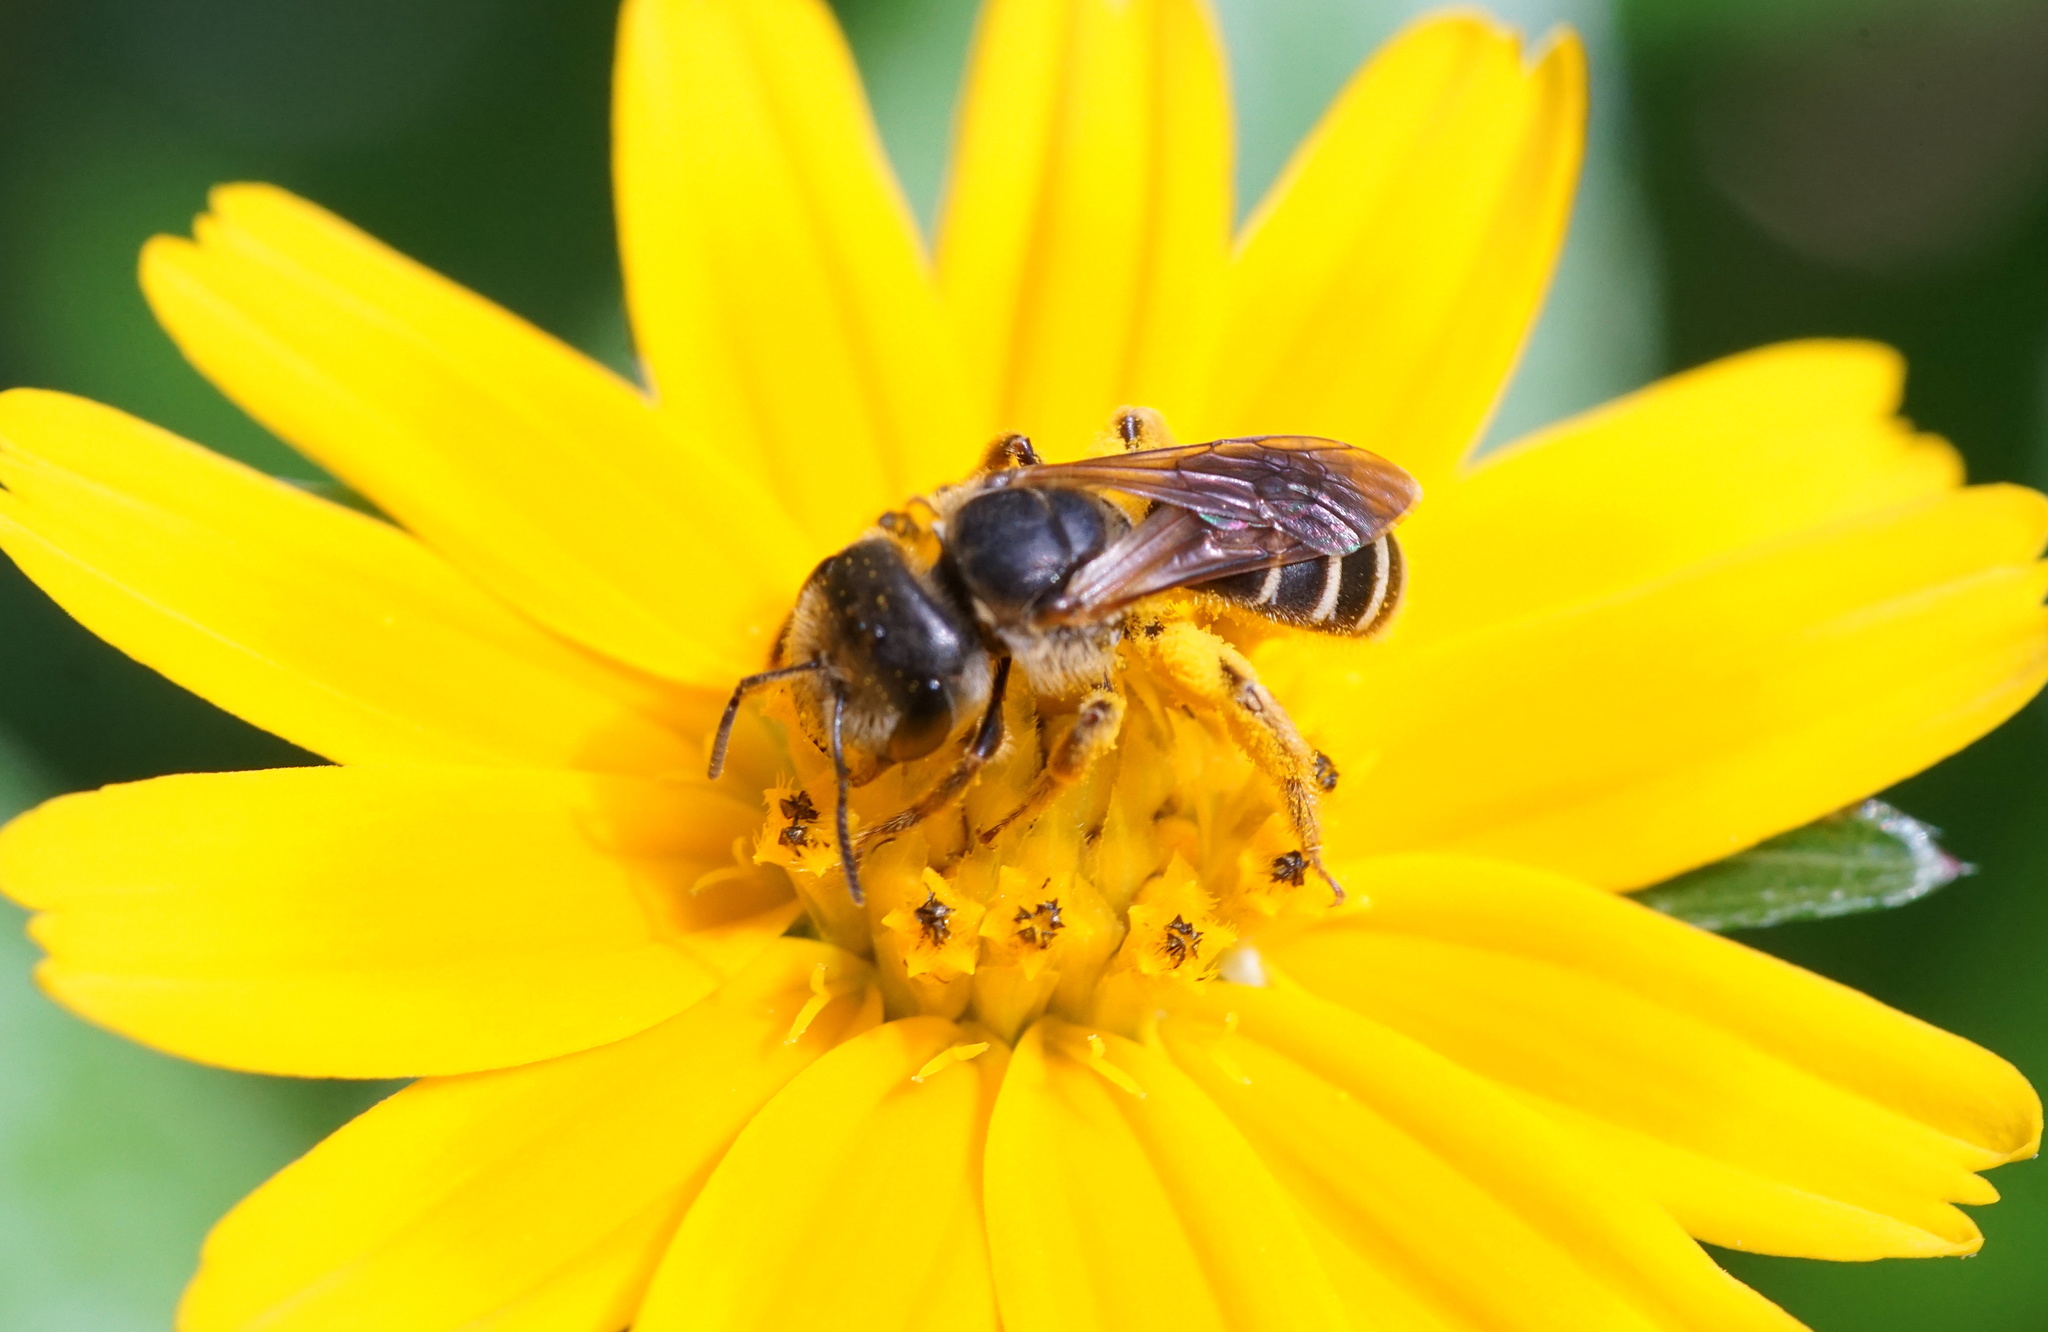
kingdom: Animalia
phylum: Arthropoda
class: Insecta
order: Hymenoptera
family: Halictidae
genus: Halictus
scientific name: Halictus poeyi
